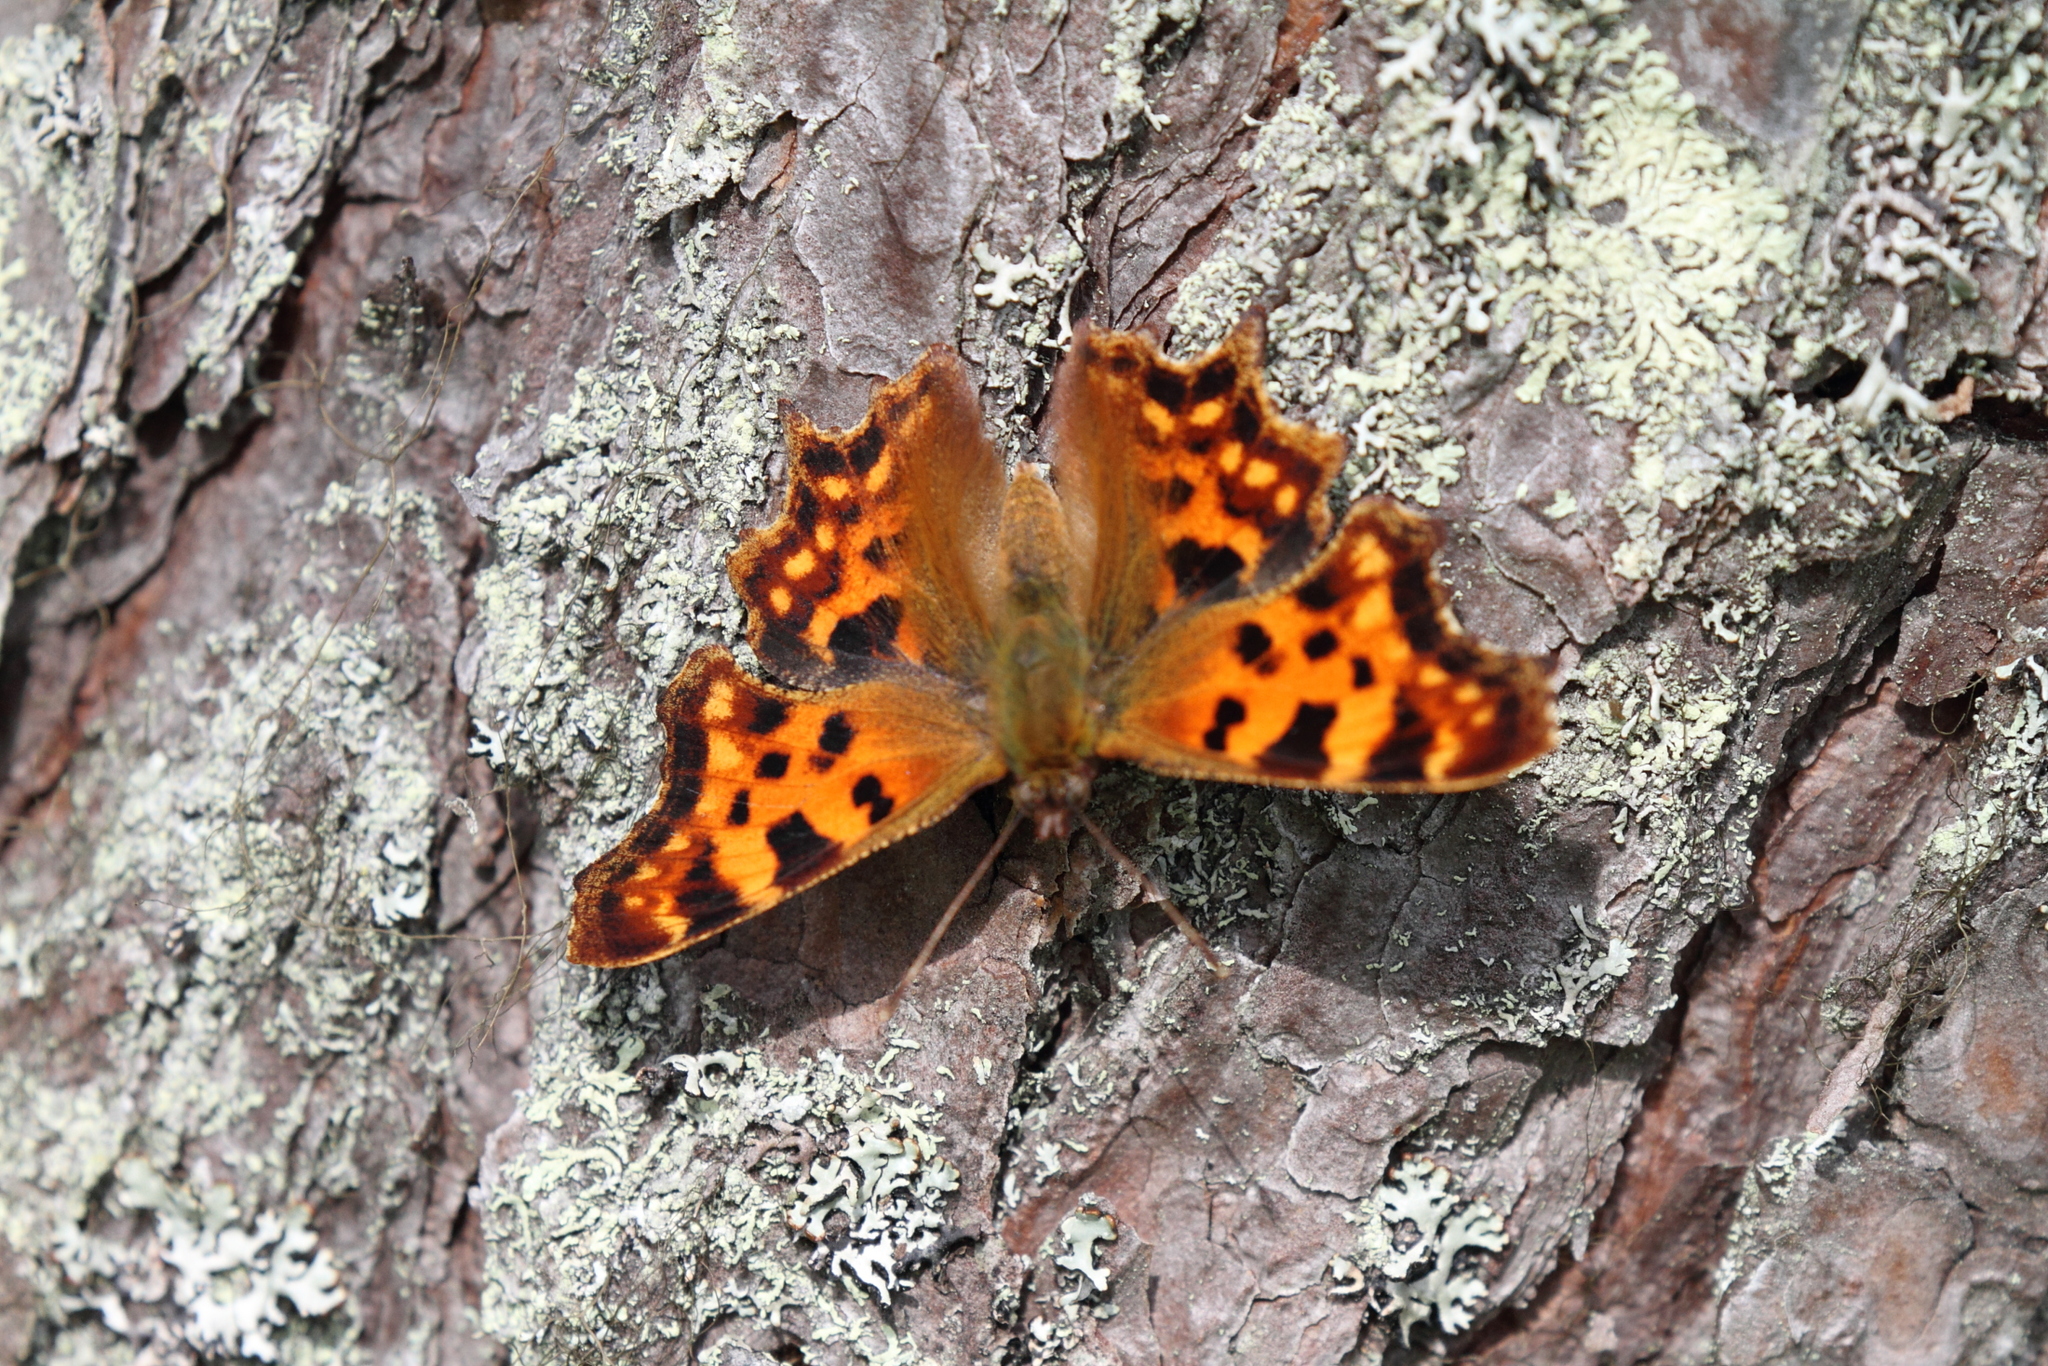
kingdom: Animalia
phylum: Arthropoda
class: Insecta
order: Lepidoptera
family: Nymphalidae
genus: Polygonia
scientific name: Polygonia c-album
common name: Comma
